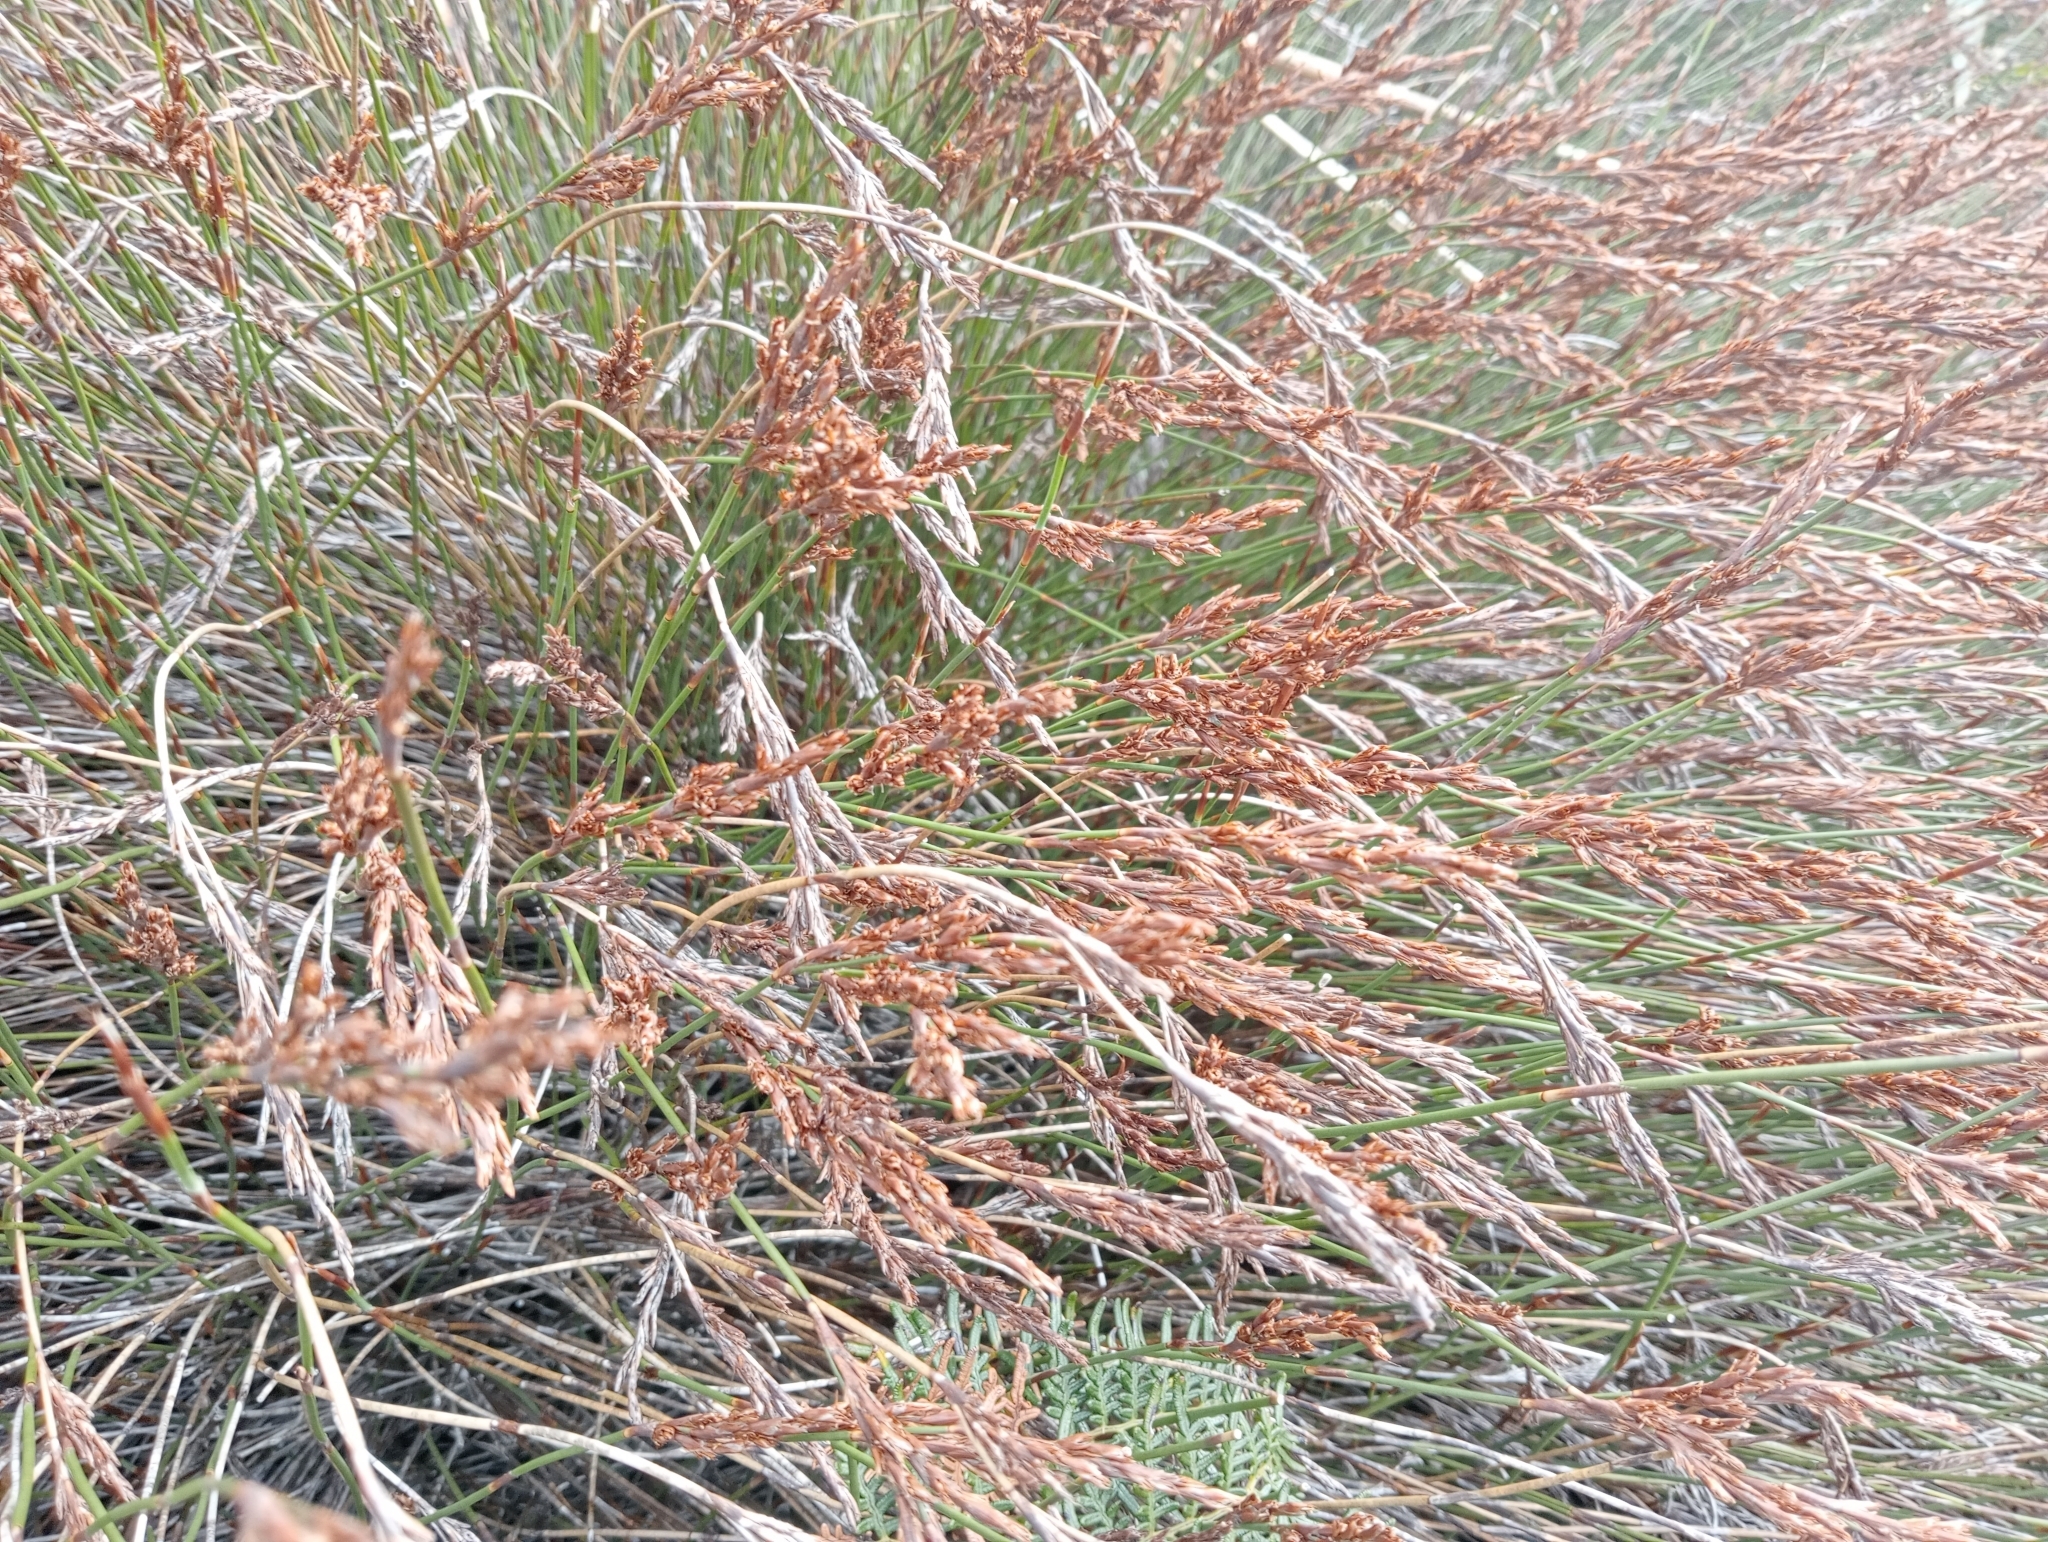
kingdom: Plantae
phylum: Tracheophyta
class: Liliopsida
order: Poales
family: Restionaceae
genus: Sporadanthus
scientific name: Sporadanthus traversii
